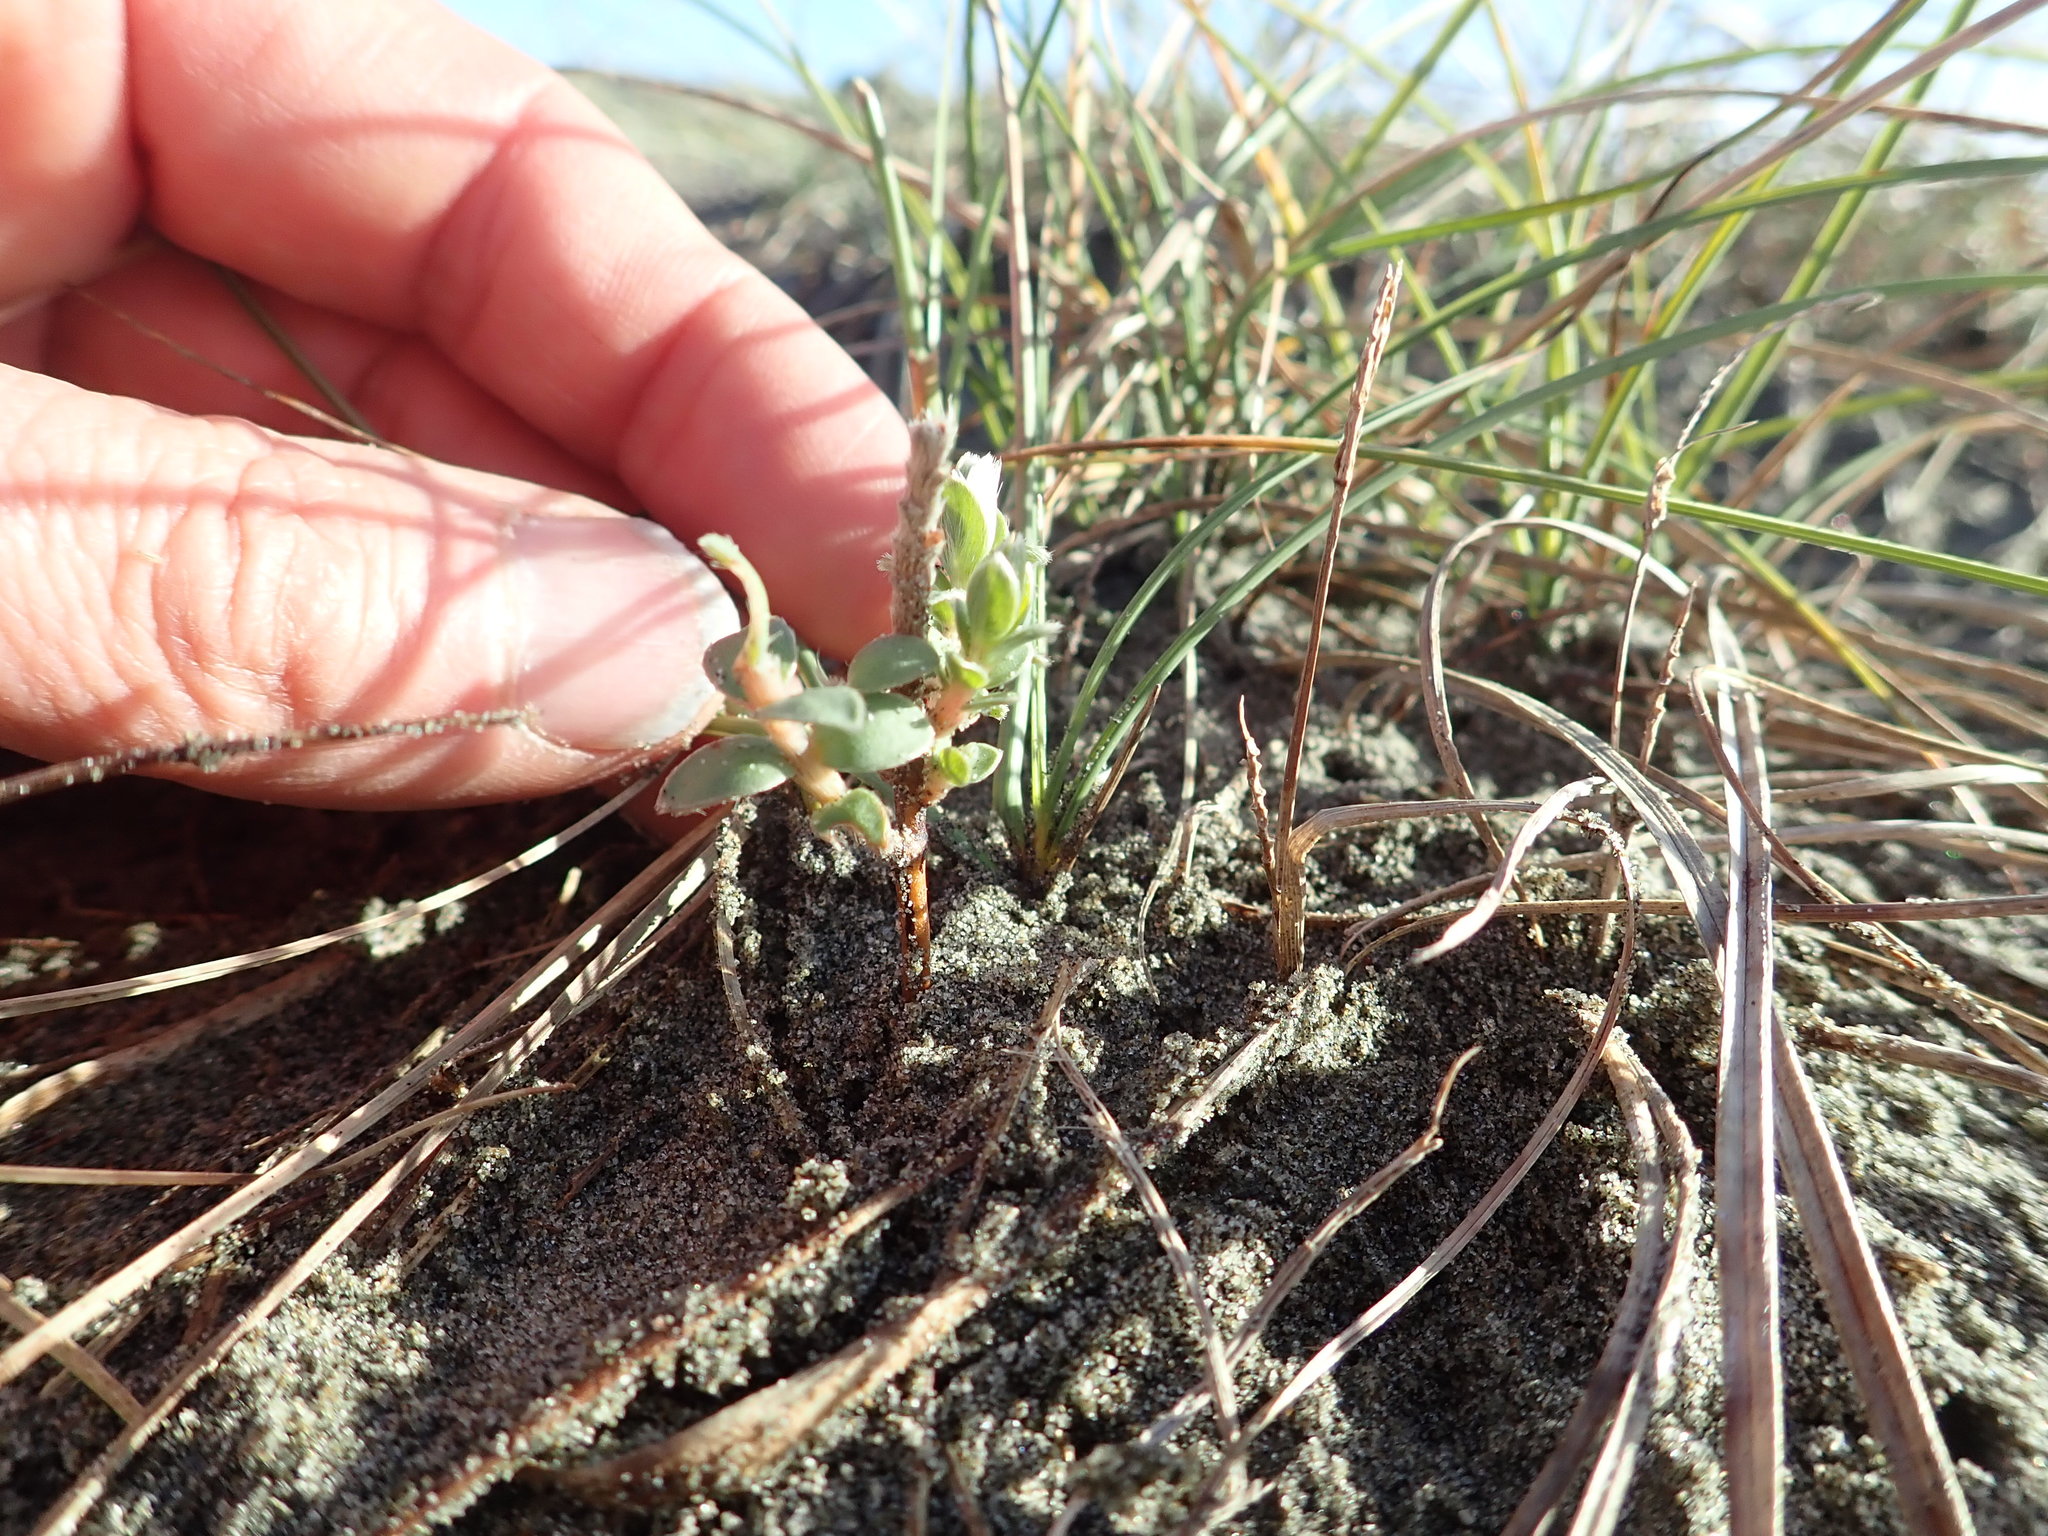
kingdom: Plantae
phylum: Tracheophyta
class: Magnoliopsida
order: Malvales
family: Thymelaeaceae
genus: Pimelea
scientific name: Pimelea villosa
